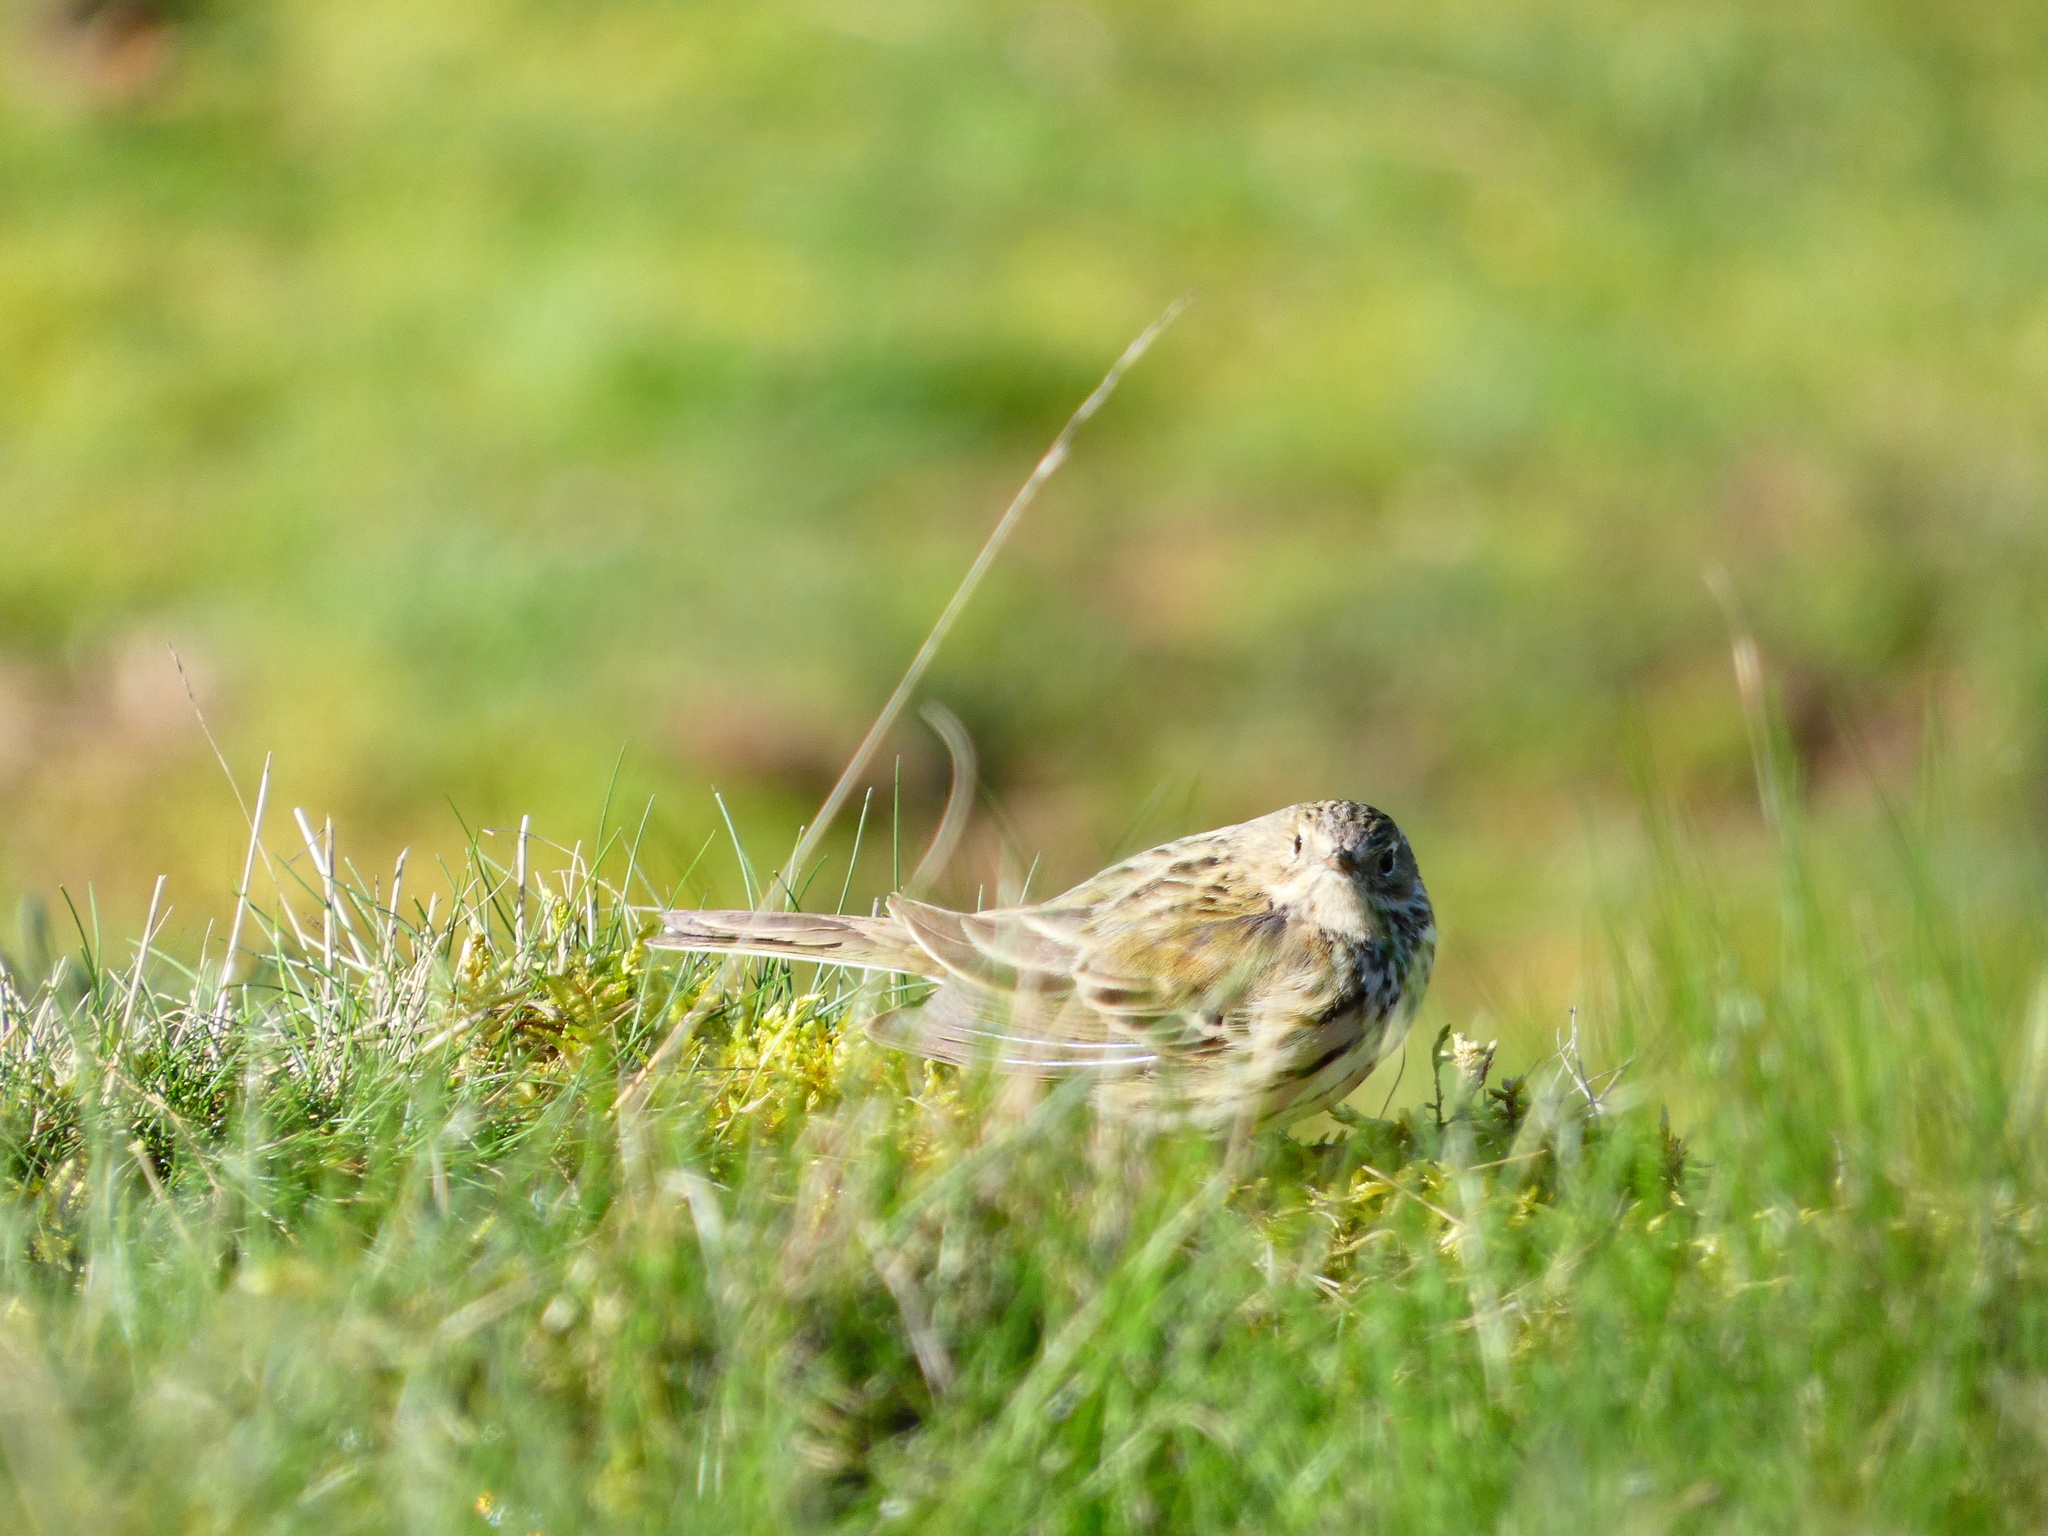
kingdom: Animalia
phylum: Chordata
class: Aves
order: Passeriformes
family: Motacillidae
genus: Anthus
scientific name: Anthus pratensis
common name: Meadow pipit
